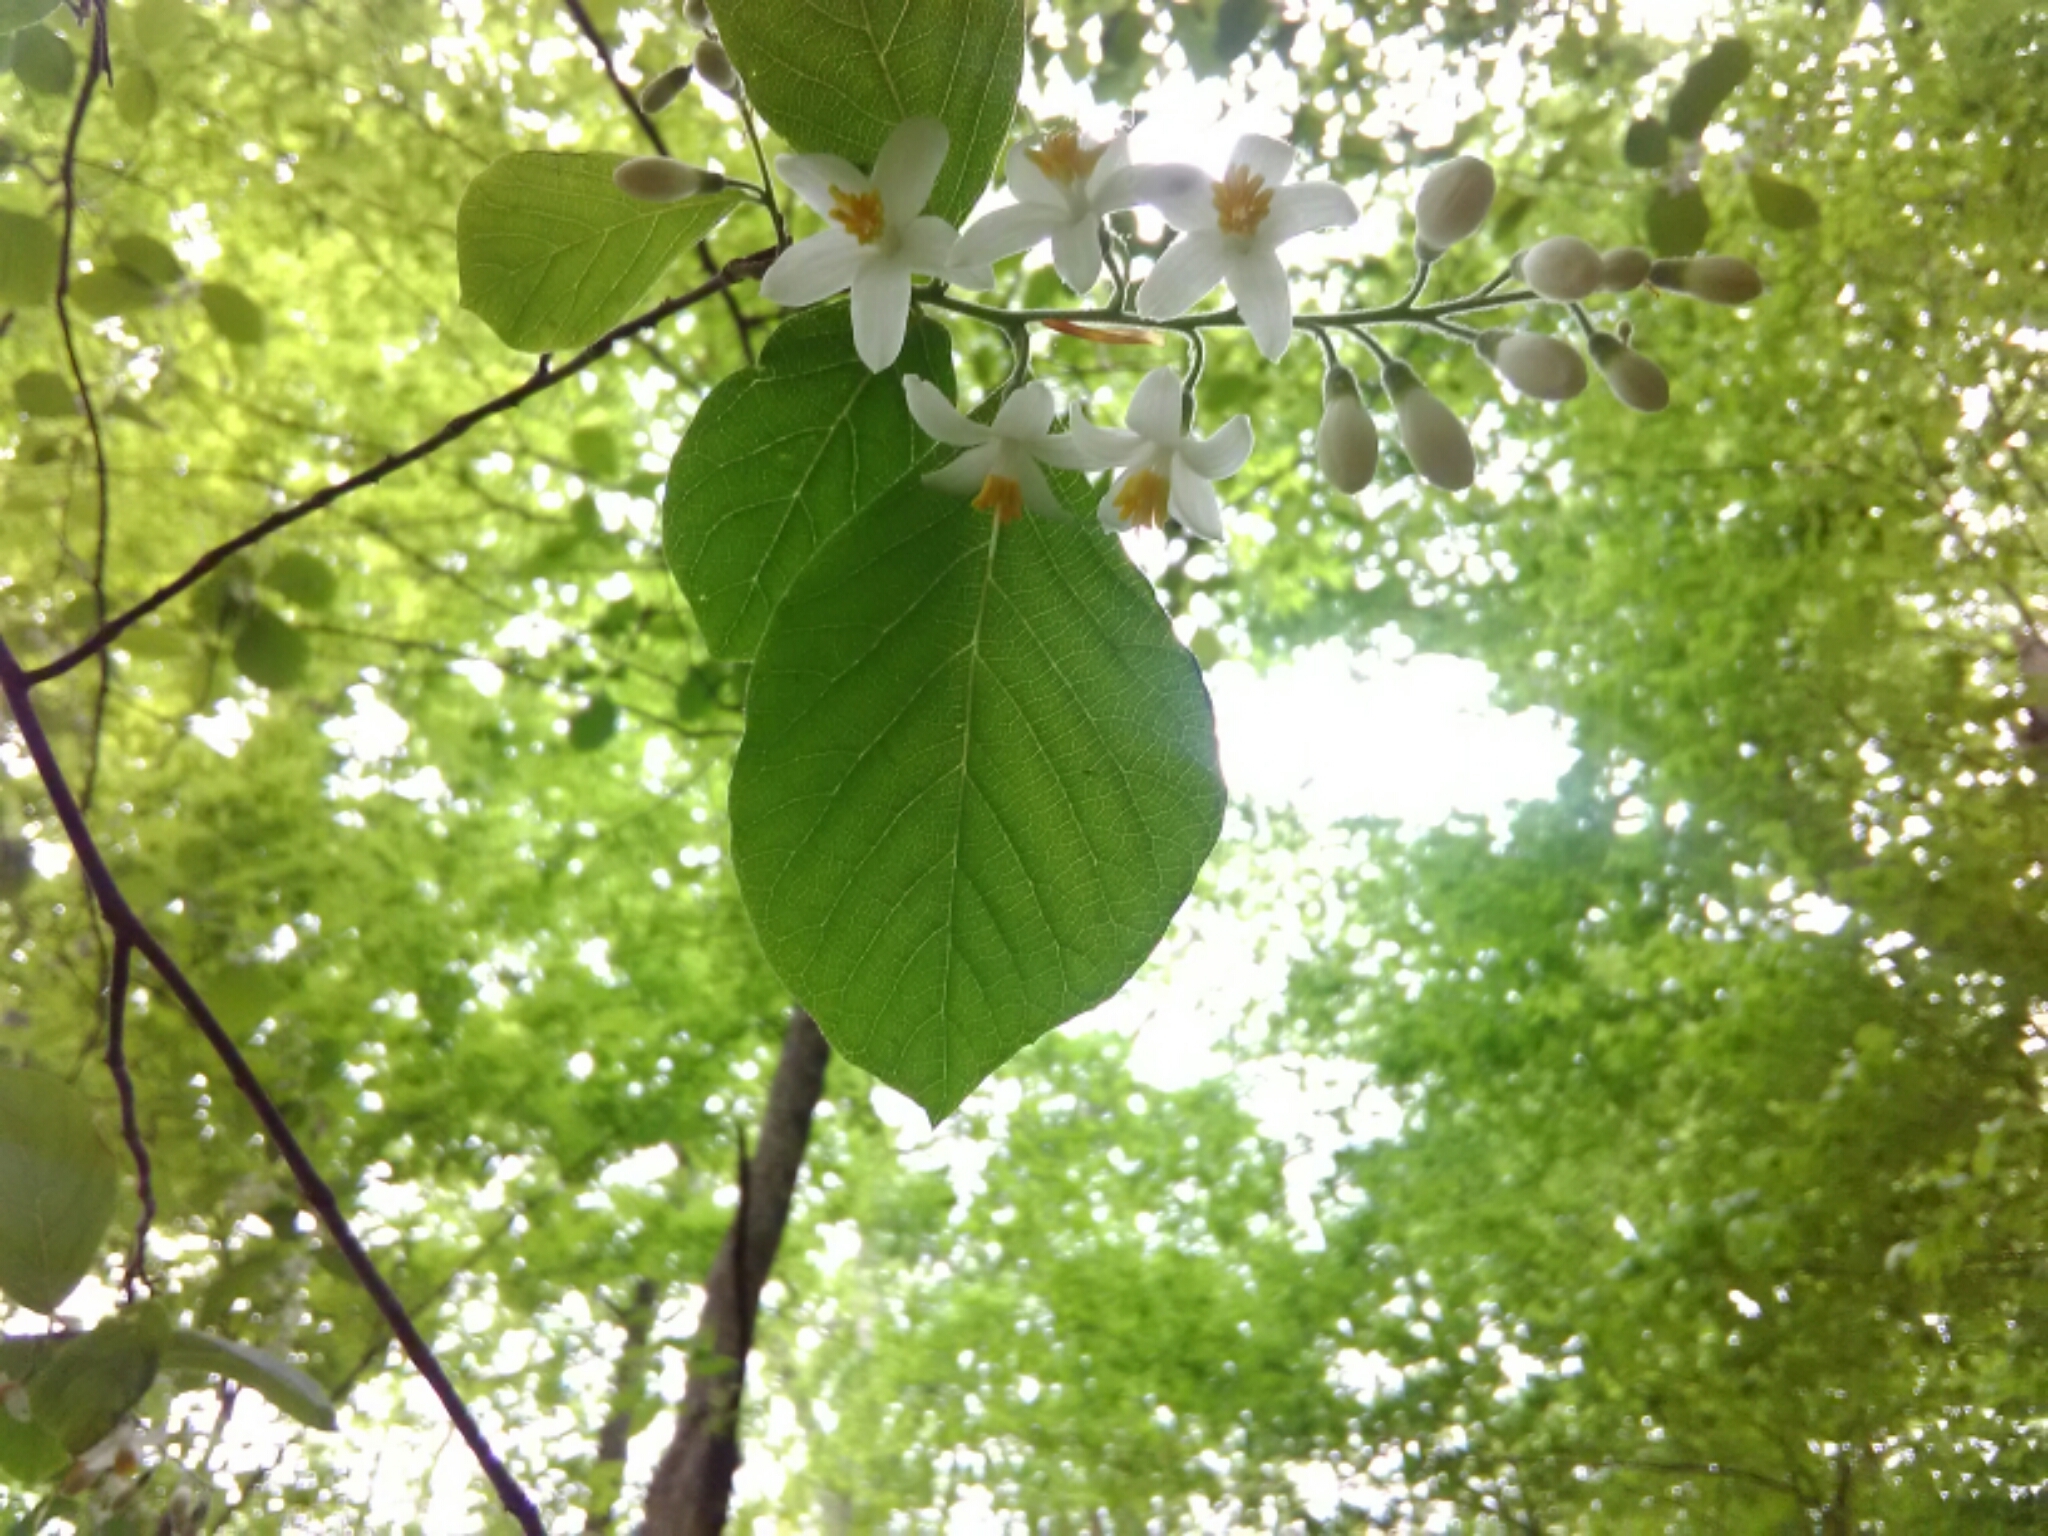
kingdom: Plantae
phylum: Tracheophyta
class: Magnoliopsida
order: Ericales
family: Styracaceae
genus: Styrax
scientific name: Styrax grandifolius
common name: Big-leaf snowbell
